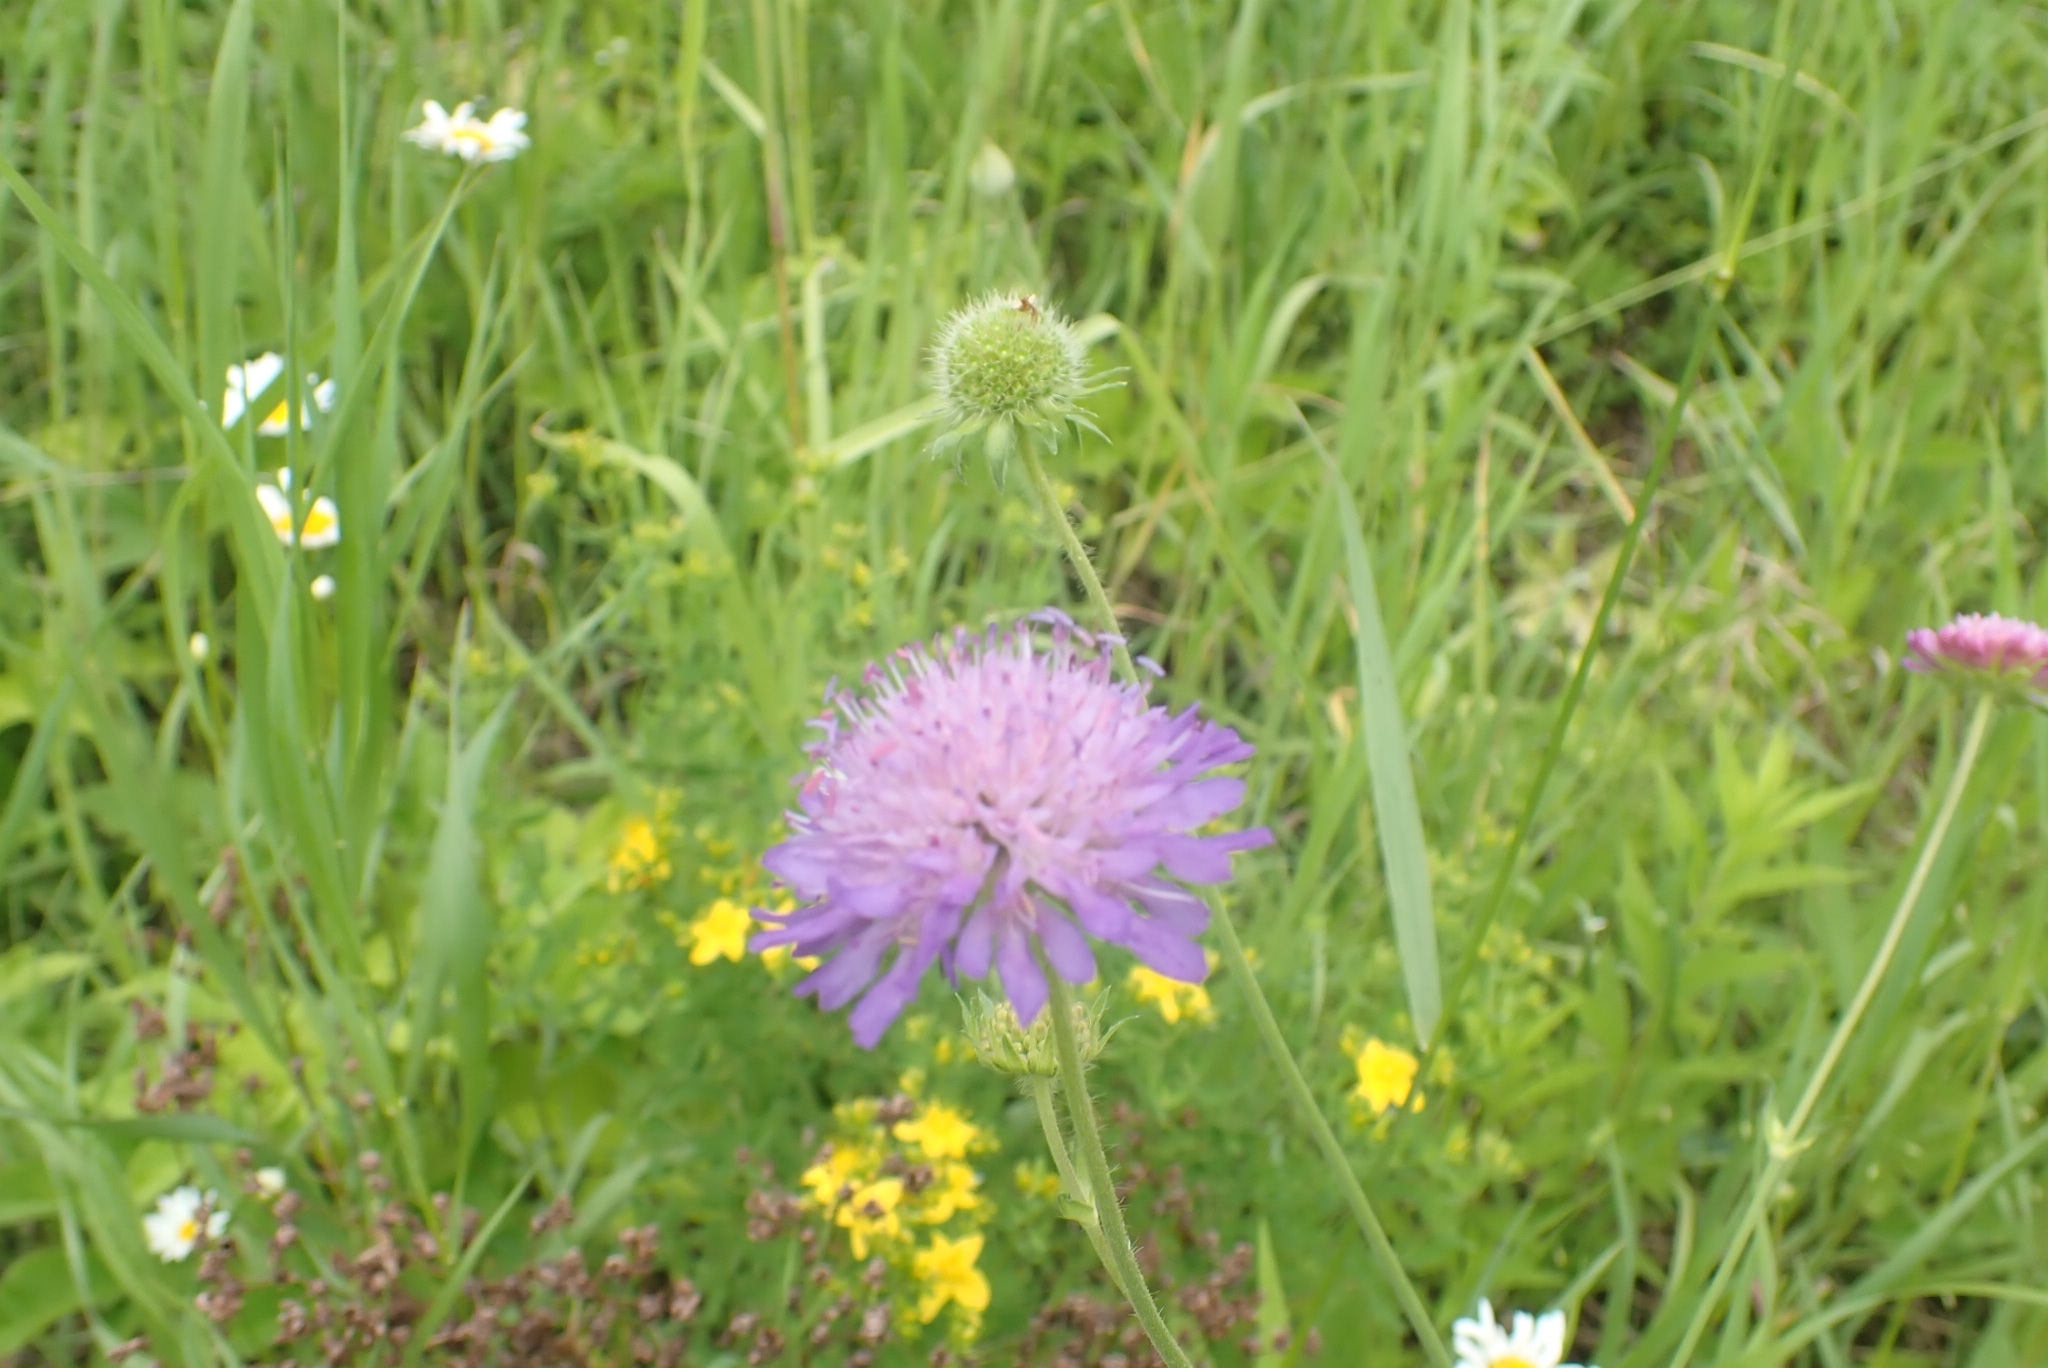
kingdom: Plantae
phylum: Tracheophyta
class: Magnoliopsida
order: Dipsacales
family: Caprifoliaceae
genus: Knautia
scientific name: Knautia arvensis
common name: Field scabiosa
